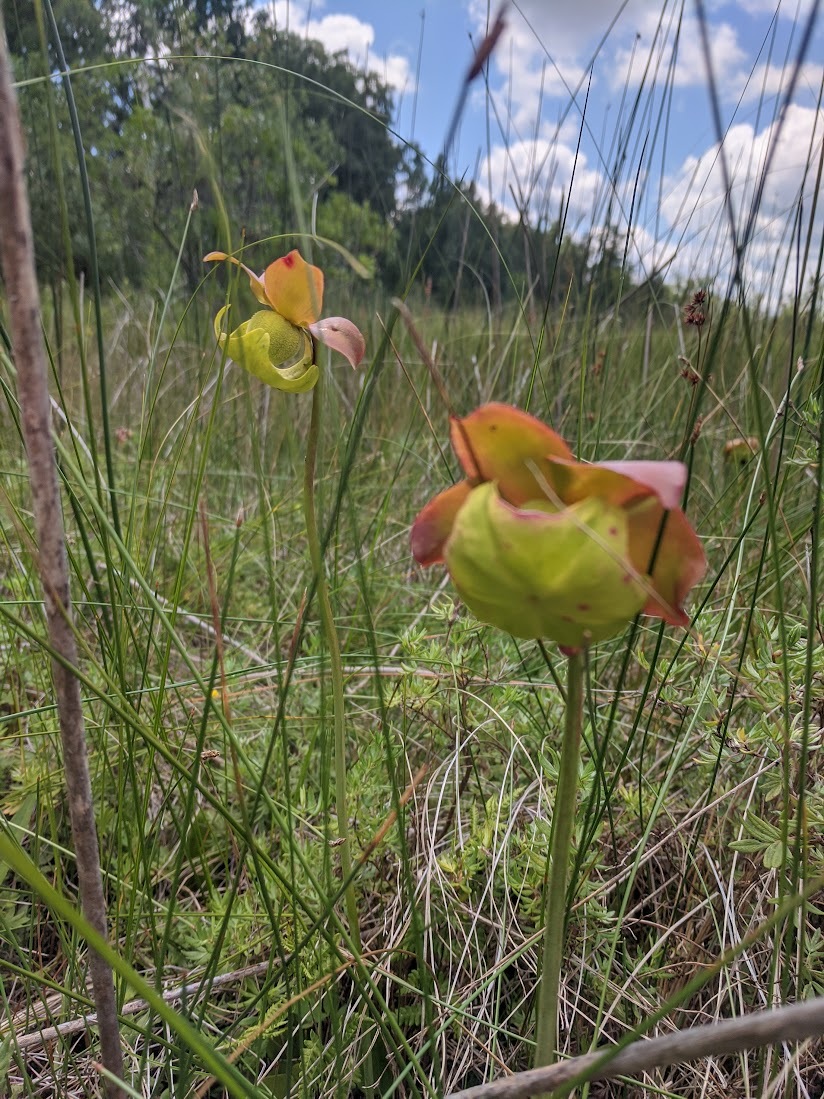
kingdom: Plantae
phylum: Tracheophyta
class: Magnoliopsida
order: Ericales
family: Sarraceniaceae
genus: Sarracenia
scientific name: Sarracenia purpurea
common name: Pitcherplant
